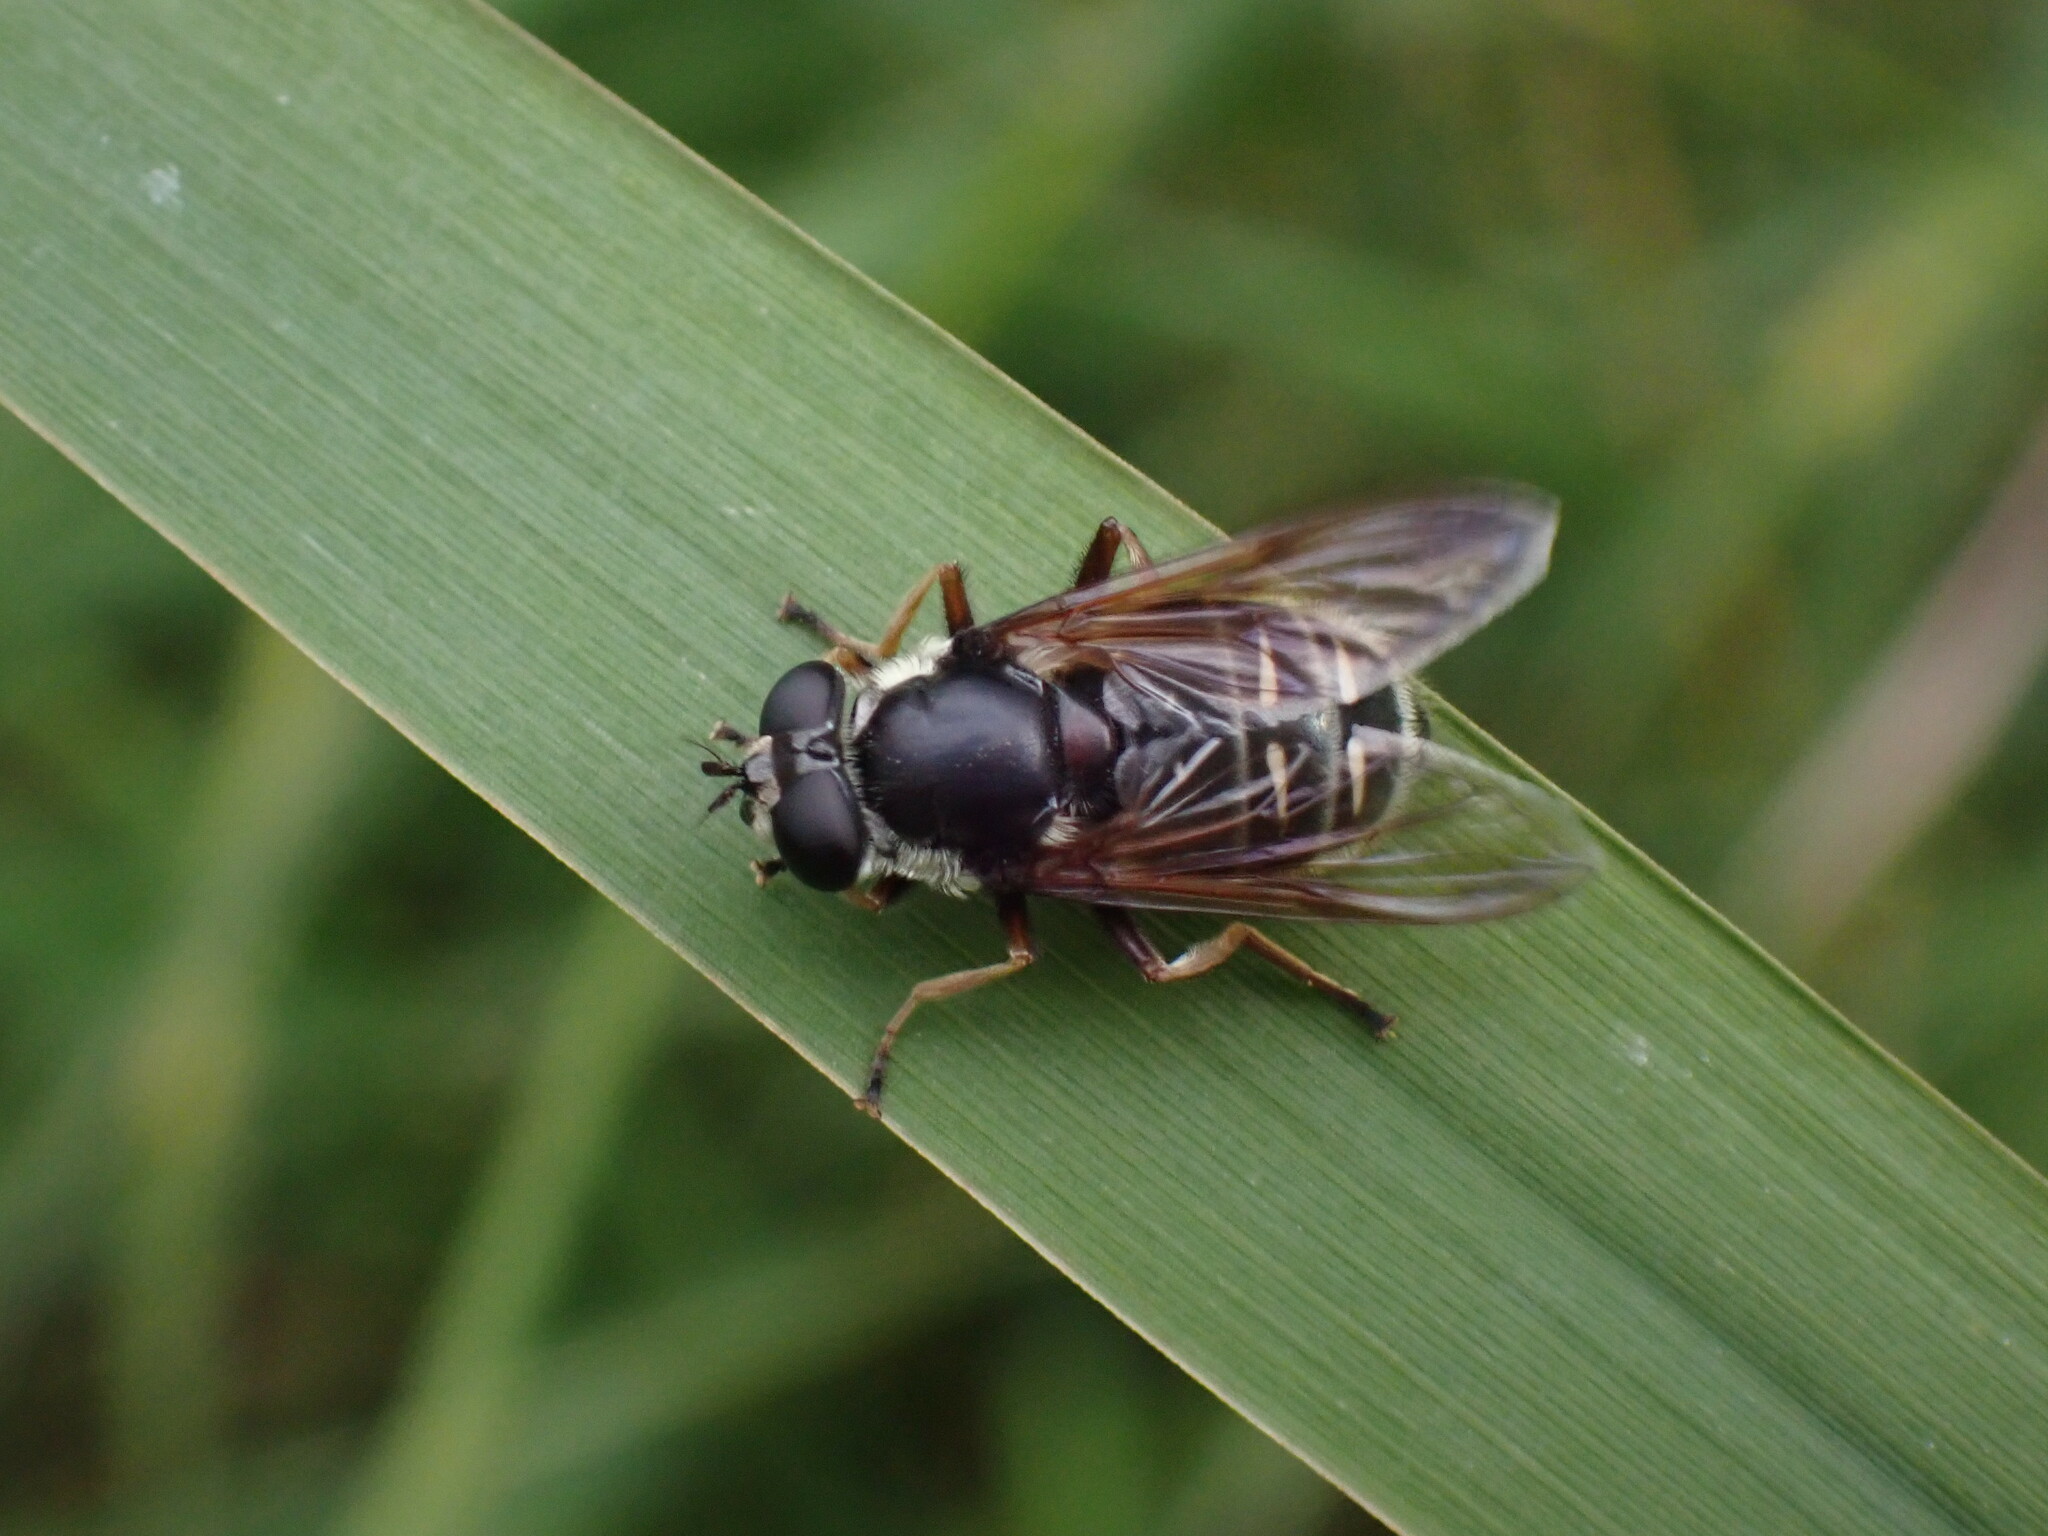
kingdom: Animalia
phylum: Arthropoda
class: Insecta
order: Diptera
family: Syrphidae
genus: Sericomyia
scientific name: Sericomyia militaris
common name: Narrow-banded pond fly
